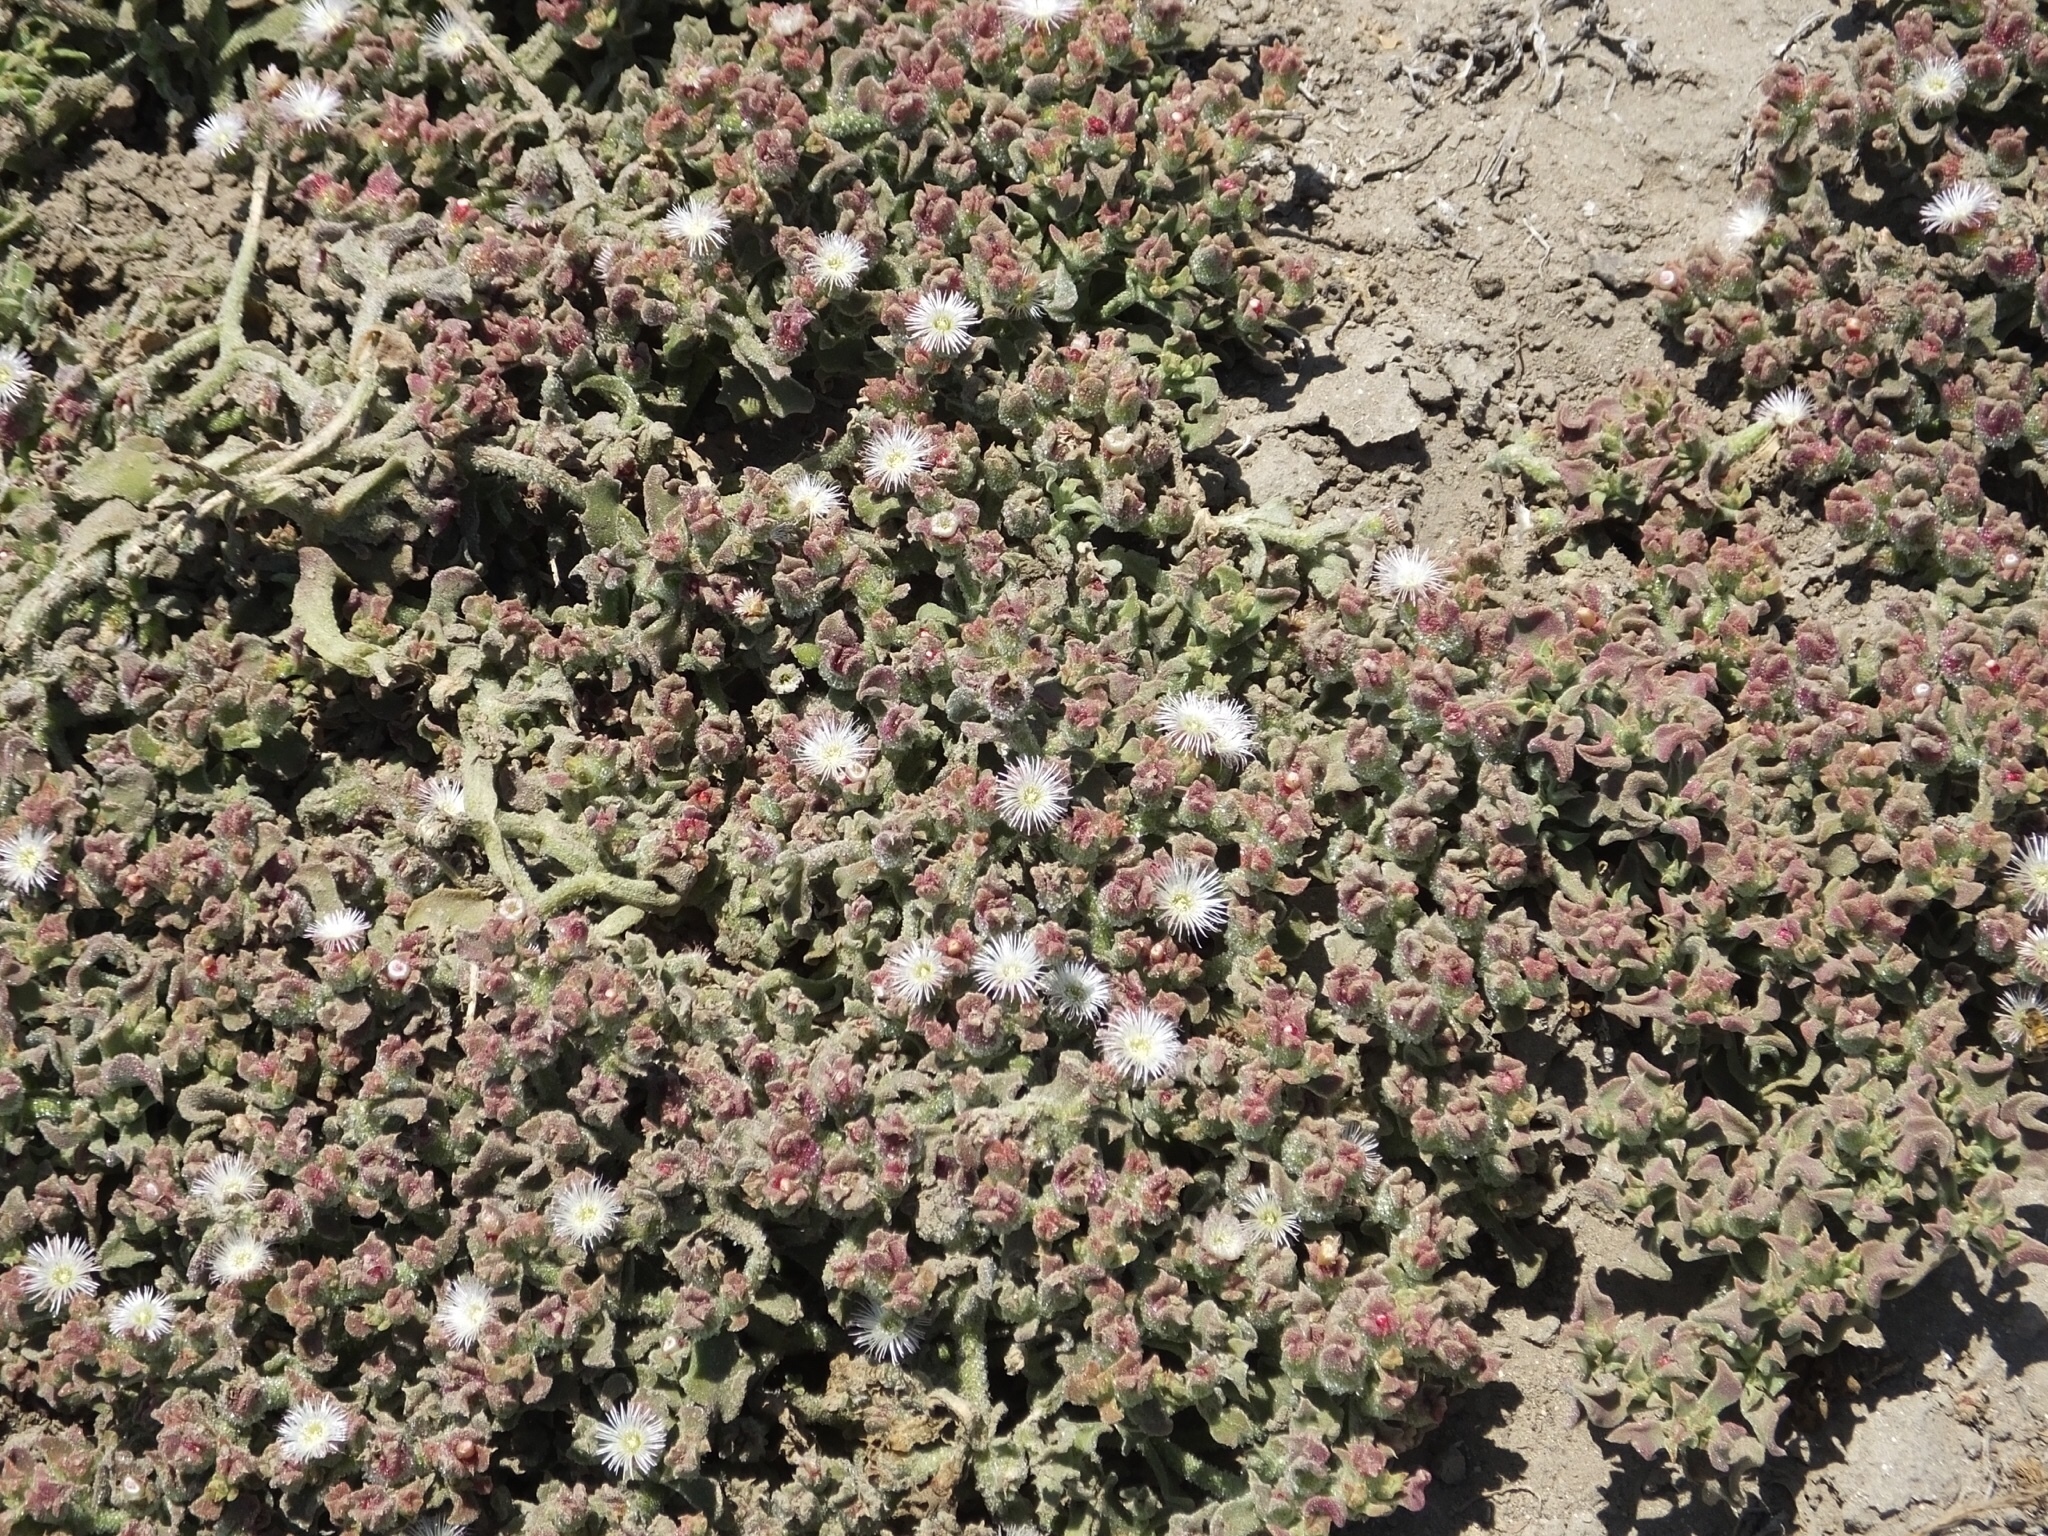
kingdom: Plantae
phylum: Tracheophyta
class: Magnoliopsida
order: Caryophyllales
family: Aizoaceae
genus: Mesembryanthemum
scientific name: Mesembryanthemum crystallinum
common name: Common iceplant
